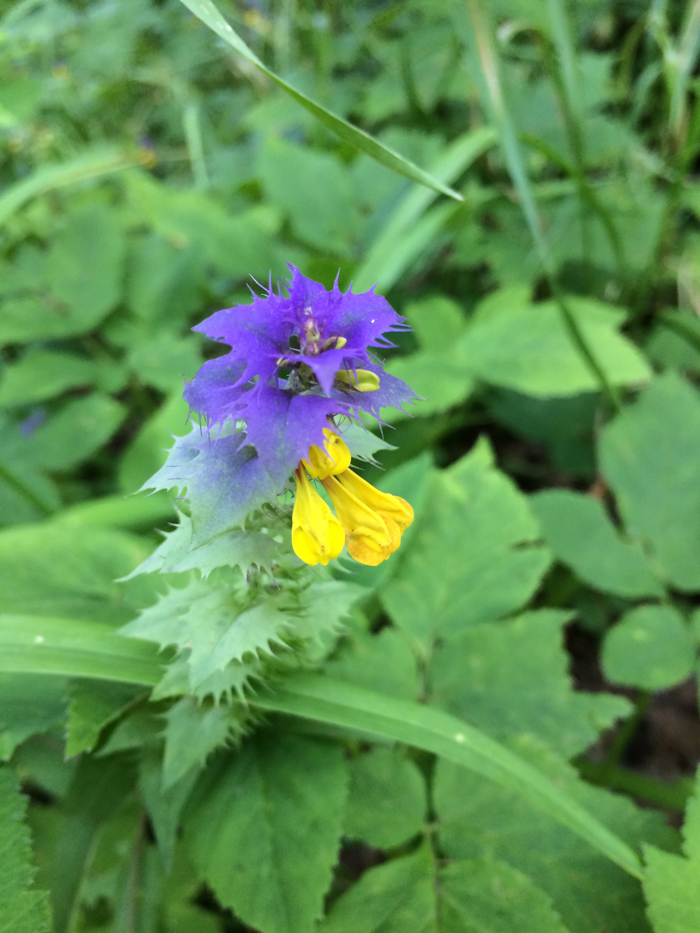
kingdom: Plantae
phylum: Tracheophyta
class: Magnoliopsida
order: Lamiales
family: Orobanchaceae
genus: Melampyrum
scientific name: Melampyrum nemorosum
